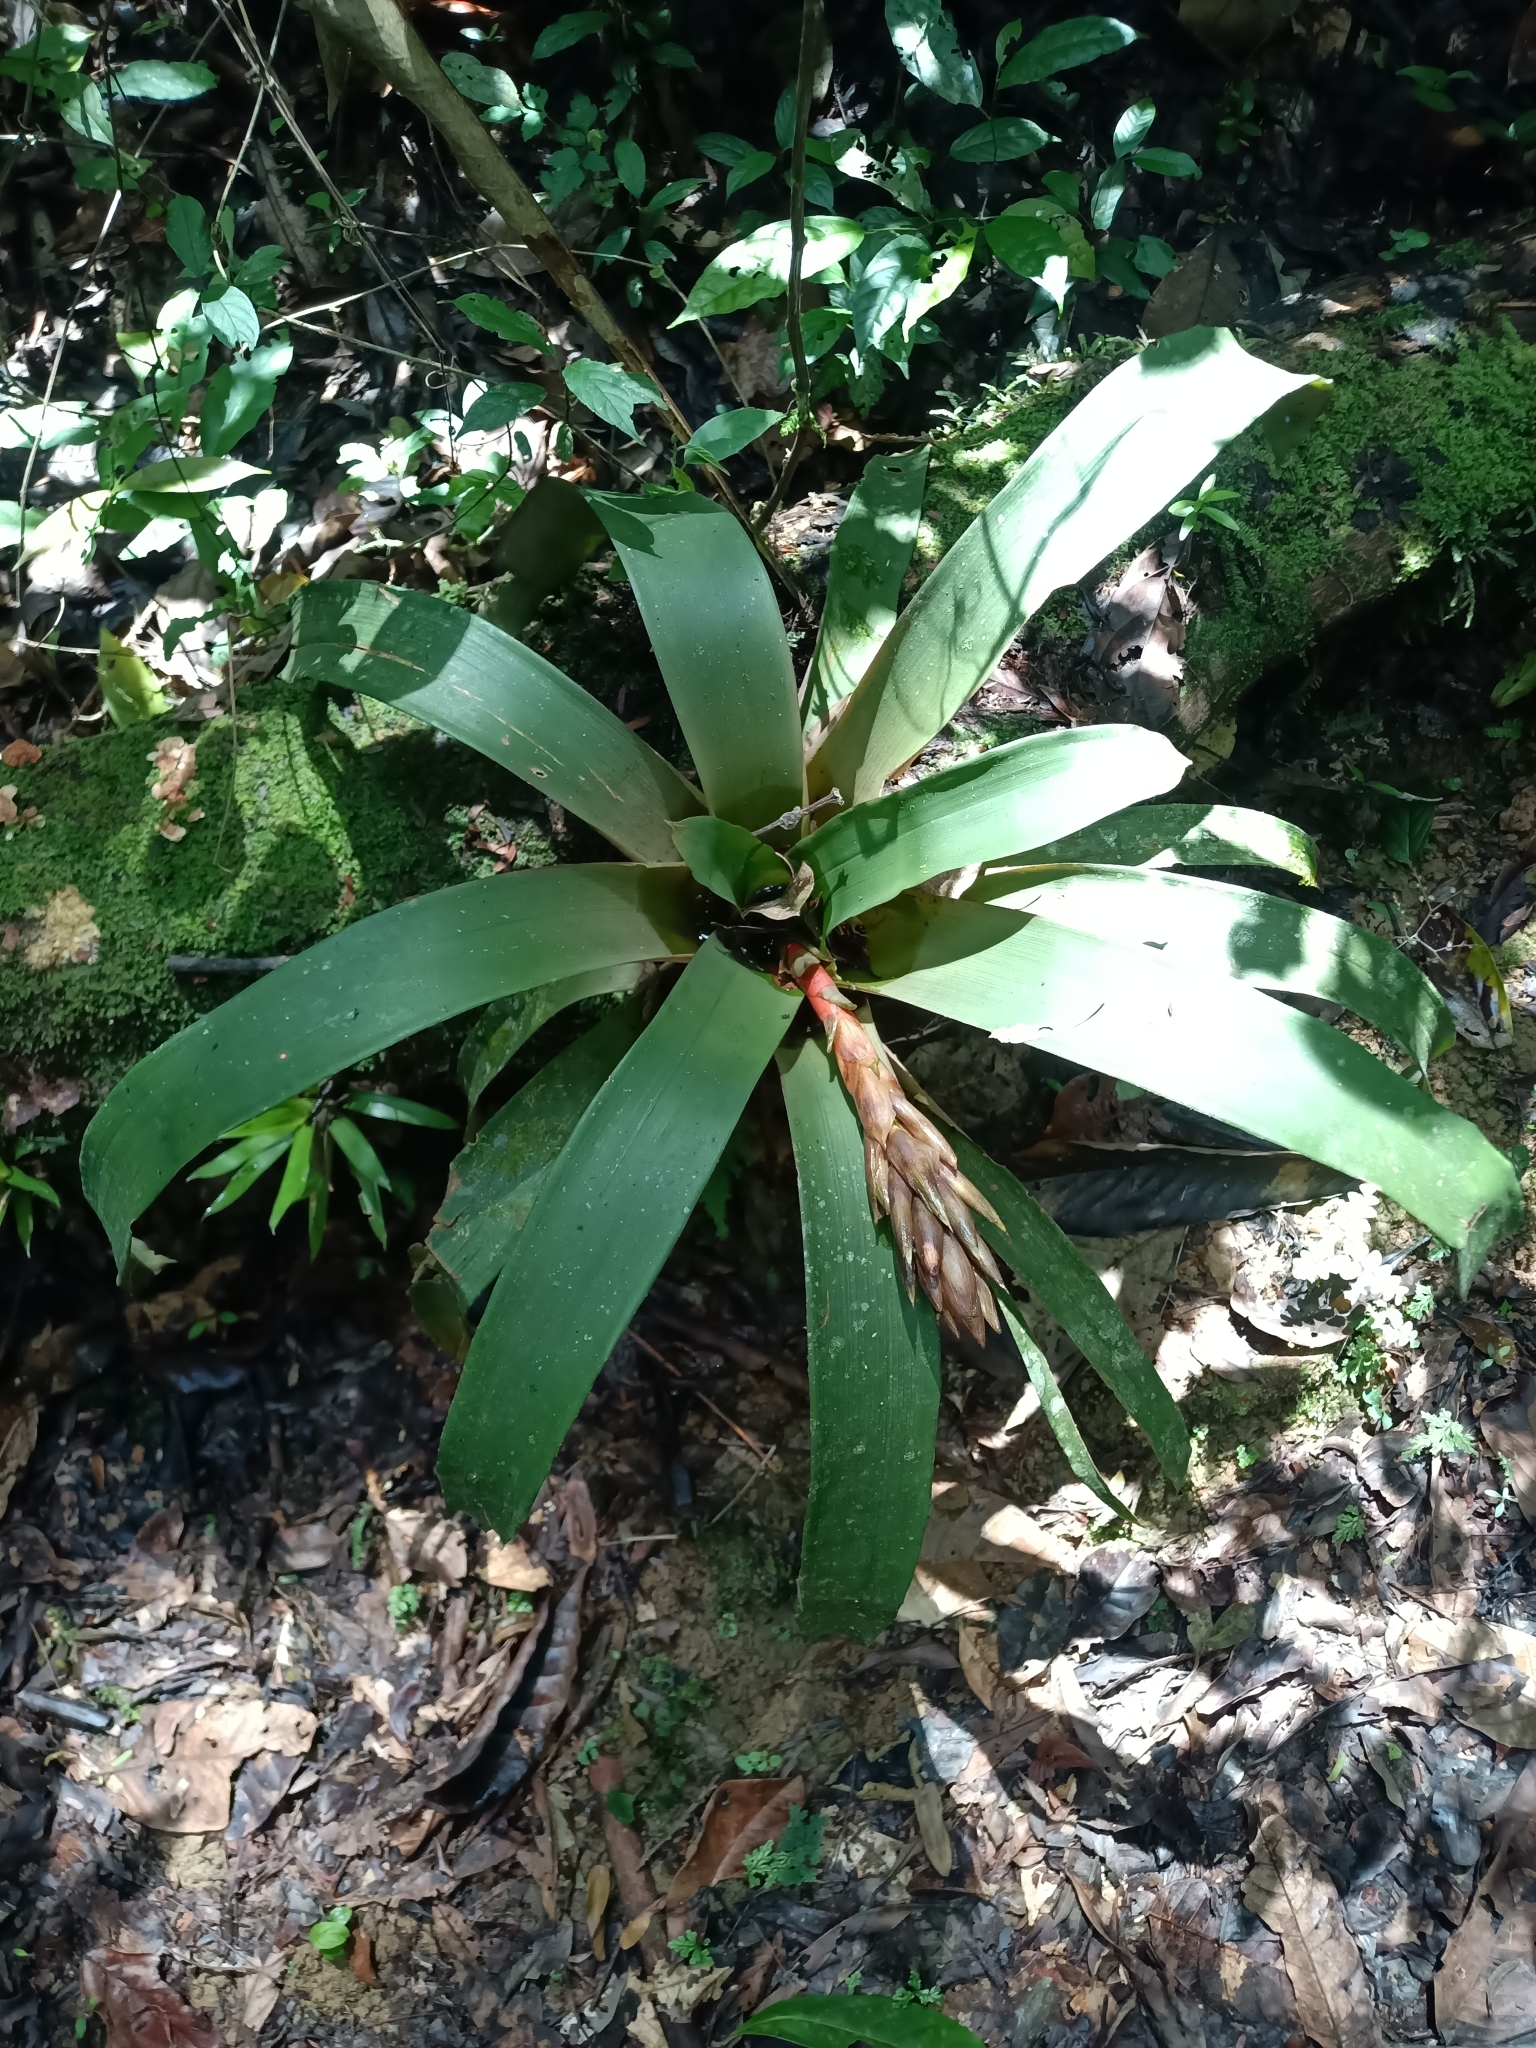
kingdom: Plantae
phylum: Tracheophyta
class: Liliopsida
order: Poales
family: Bromeliaceae
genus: Guzmania
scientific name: Guzmania melinonis
